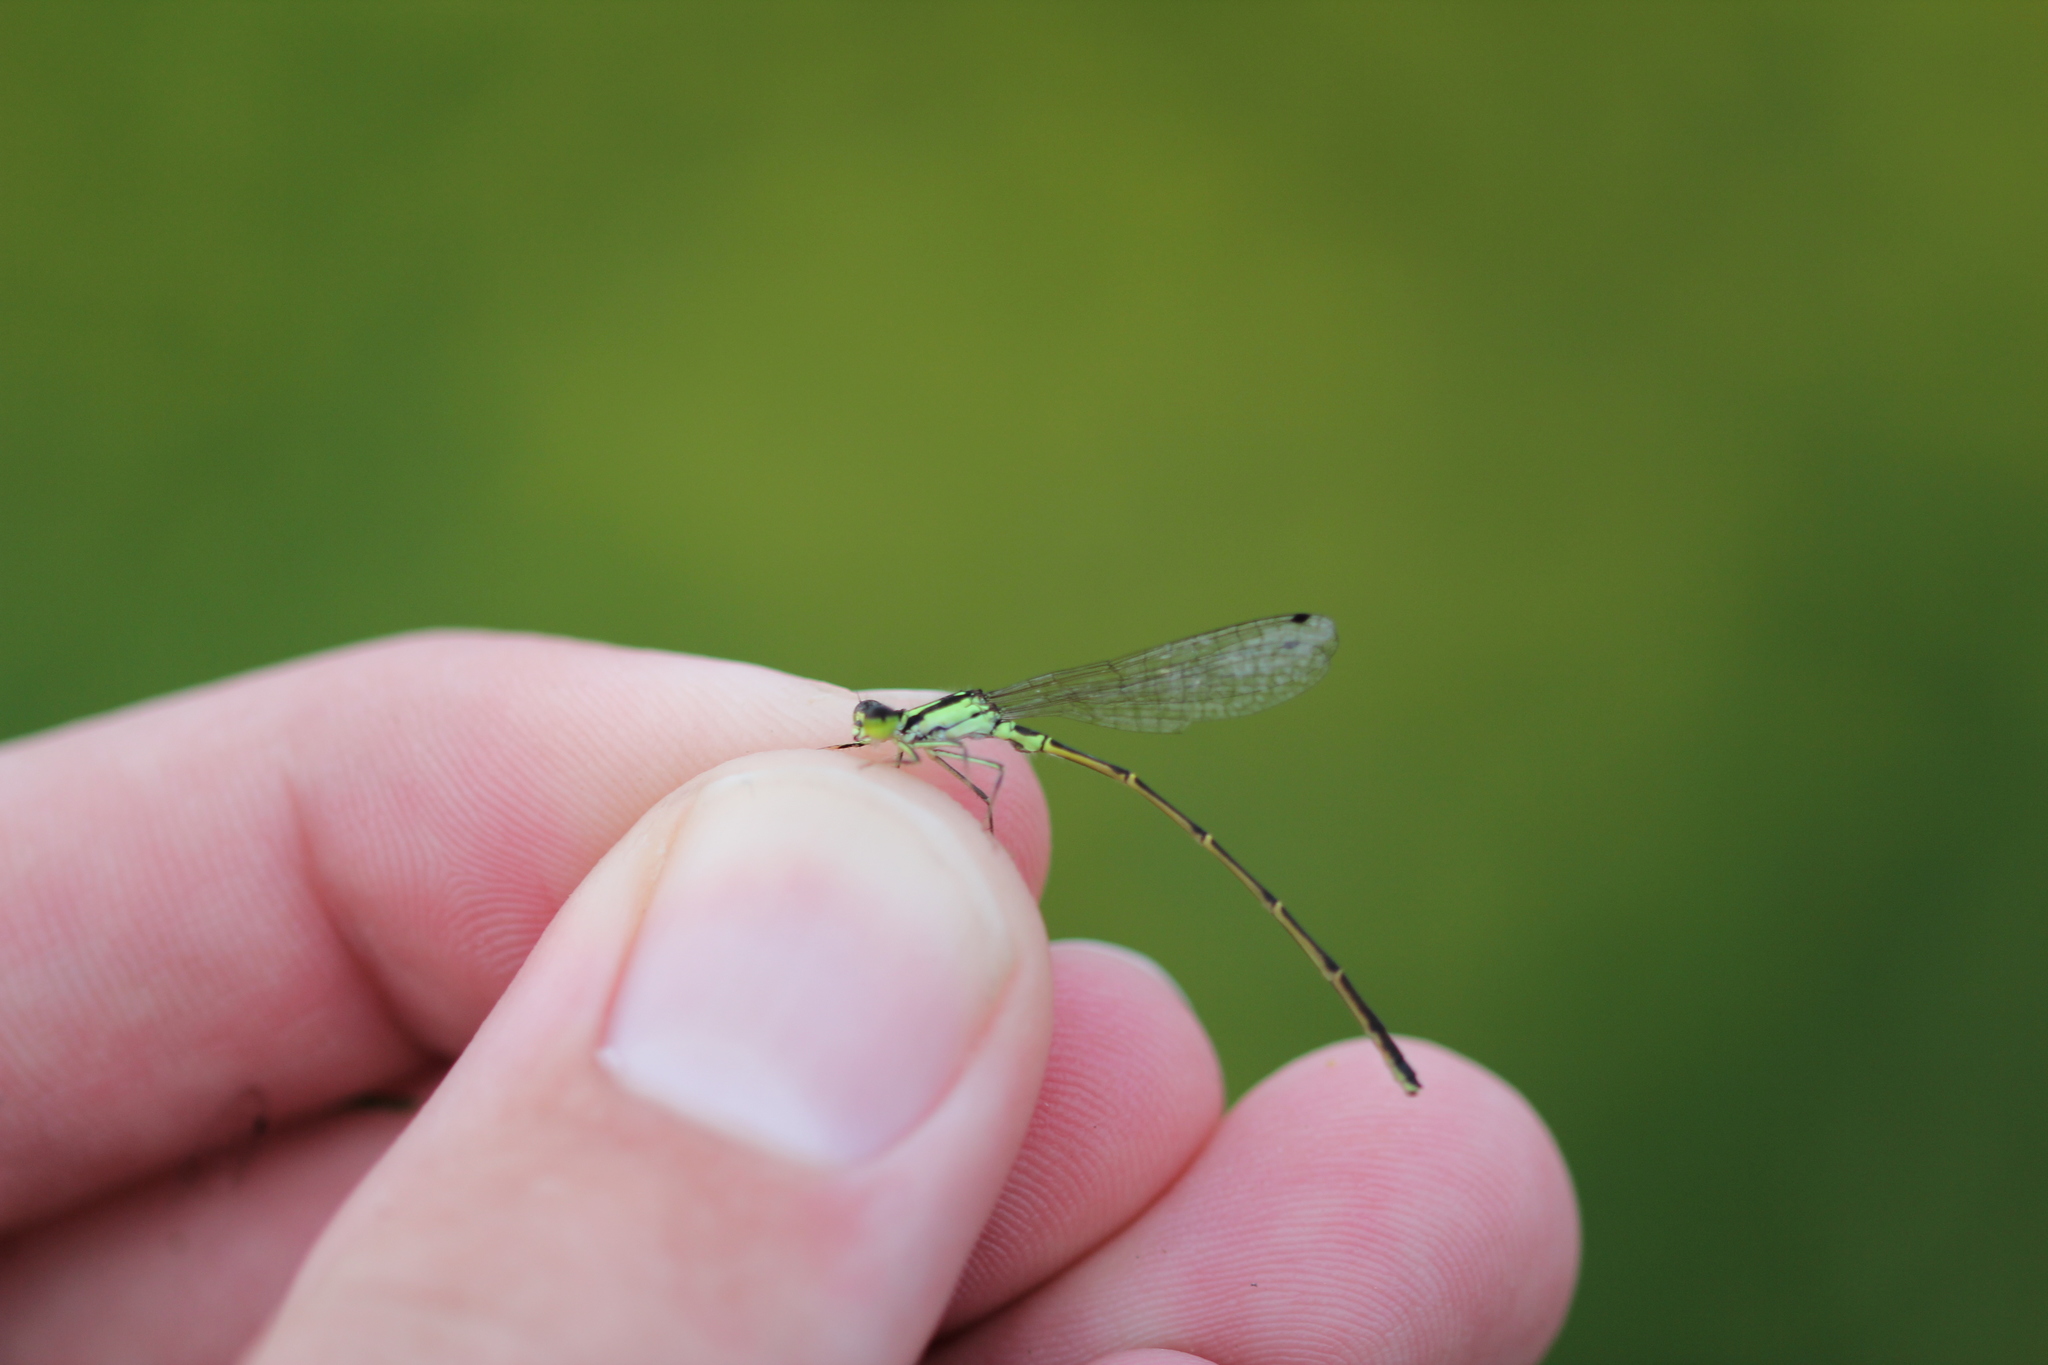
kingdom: Animalia
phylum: Arthropoda
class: Insecta
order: Odonata
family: Coenagrionidae
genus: Ischnura
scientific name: Ischnura posita
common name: Fragile forktail
